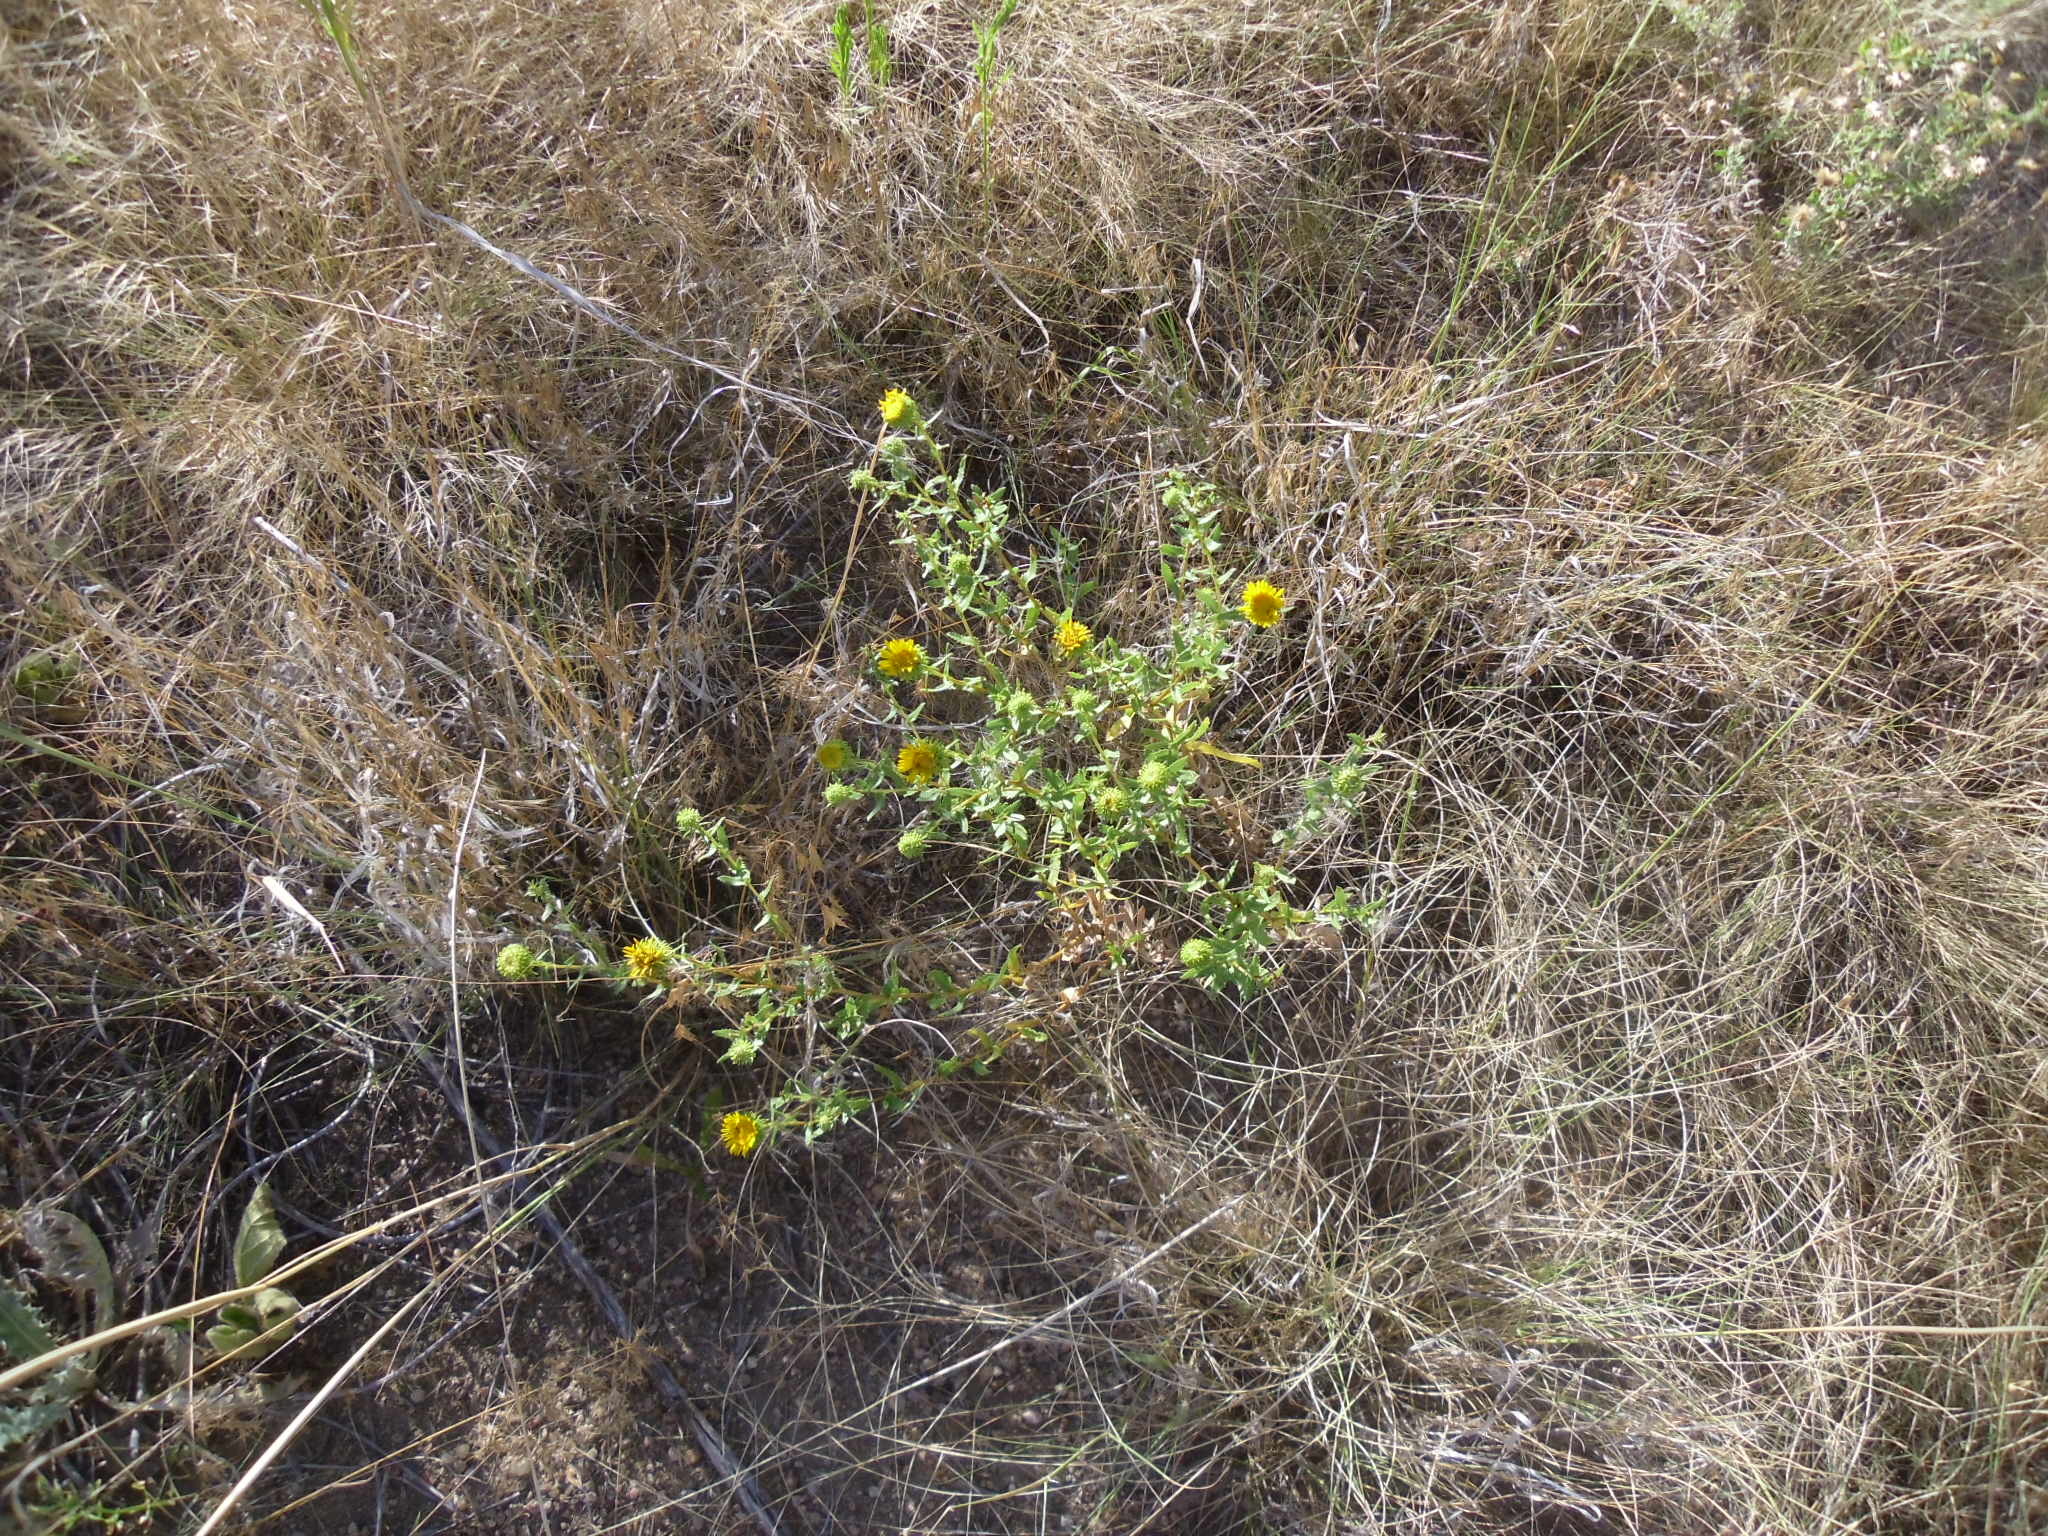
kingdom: Plantae
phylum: Tracheophyta
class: Magnoliopsida
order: Asterales
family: Asteraceae
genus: Grindelia
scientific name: Grindelia squarrosa
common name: Curly-cup gumweed
